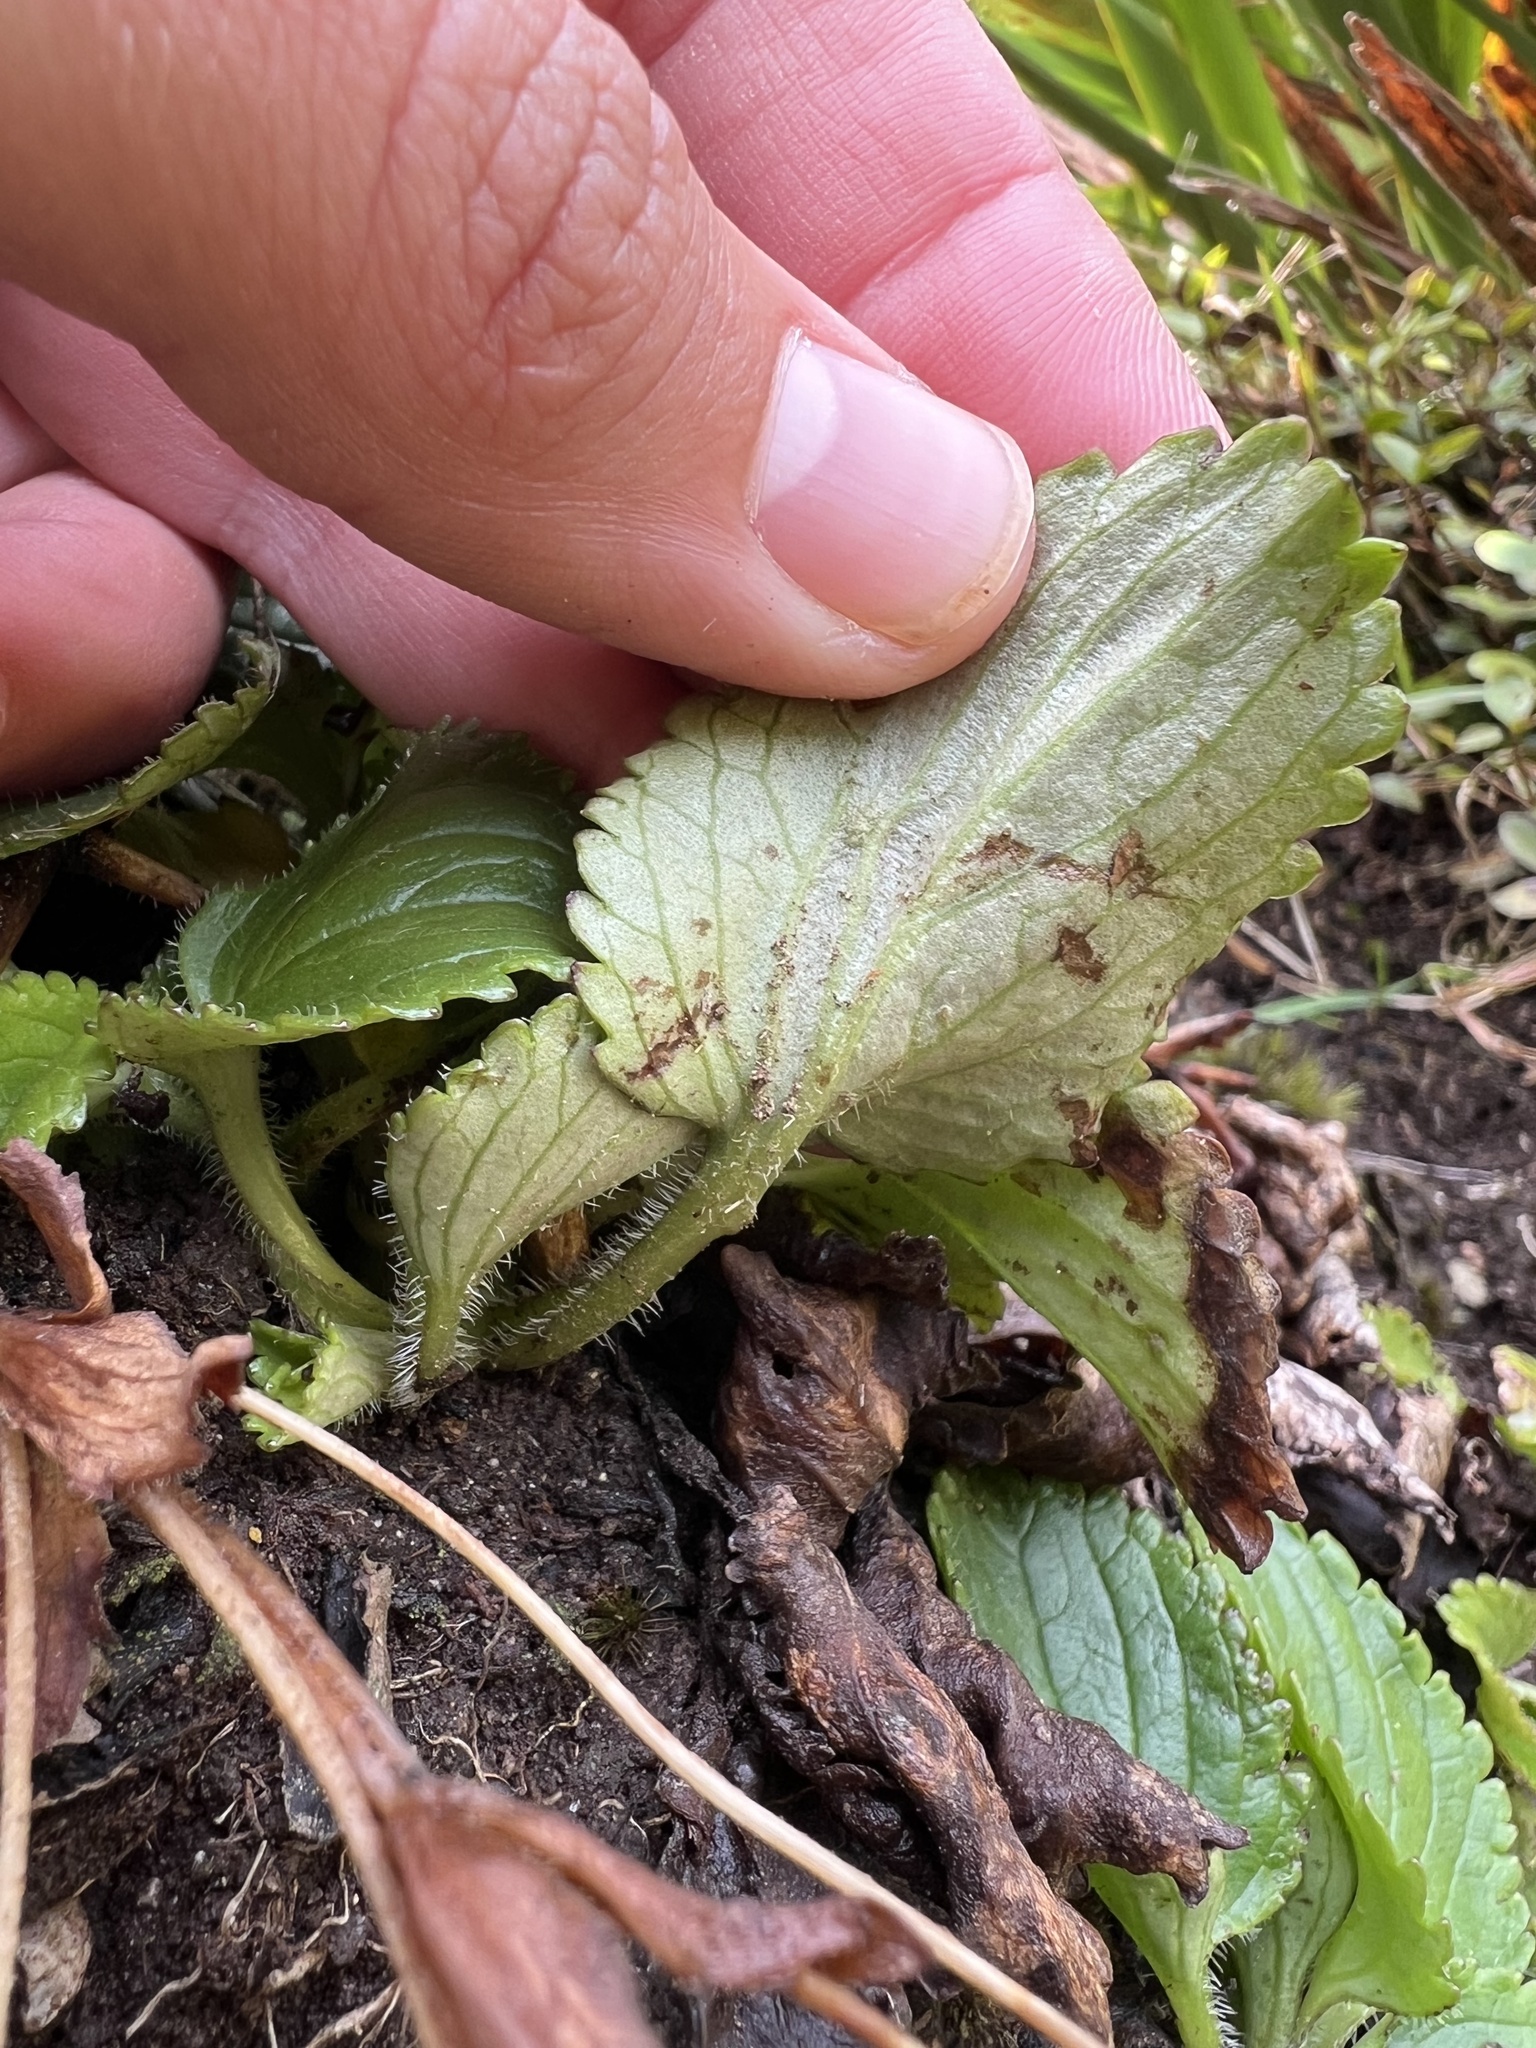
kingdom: Plantae
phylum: Tracheophyta
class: Magnoliopsida
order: Lamiales
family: Plantaginaceae
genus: Ourisia
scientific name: Ourisia macrophylla
